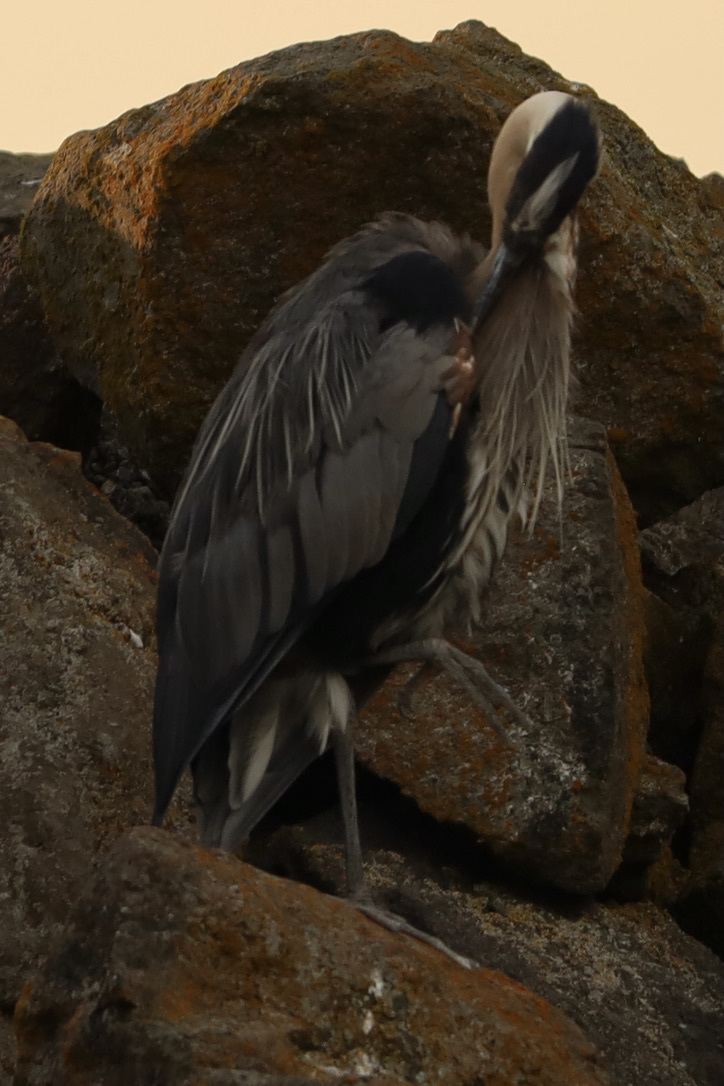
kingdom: Animalia
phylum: Chordata
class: Aves
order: Pelecaniformes
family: Ardeidae
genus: Ardea
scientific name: Ardea herodias
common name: Great blue heron
